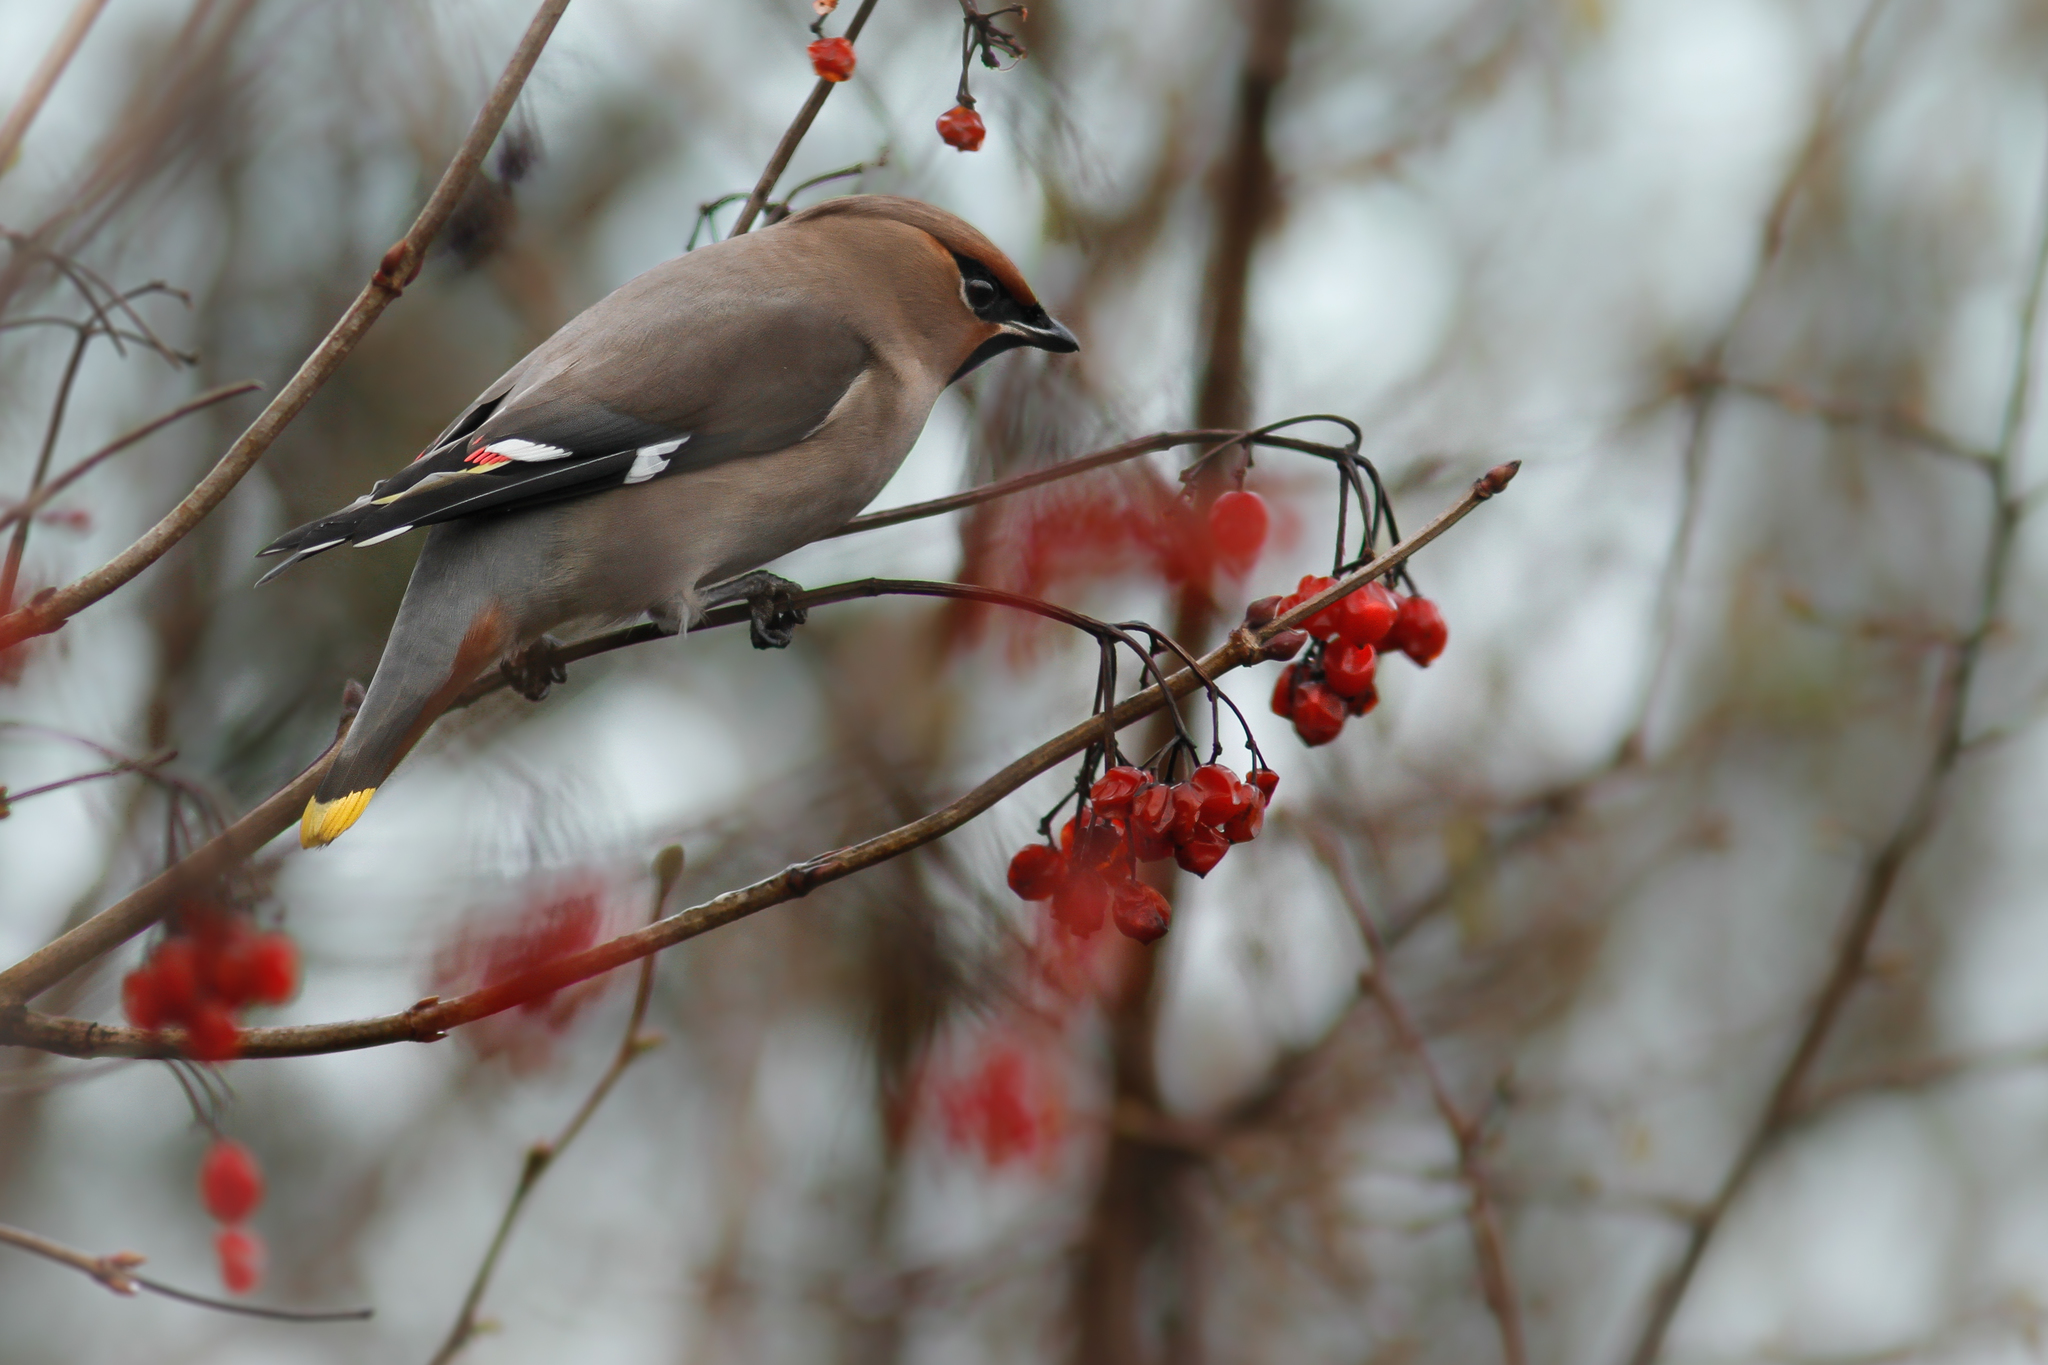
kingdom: Animalia
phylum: Chordata
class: Aves
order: Passeriformes
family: Bombycillidae
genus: Bombycilla
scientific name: Bombycilla garrulus
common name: Bohemian waxwing
